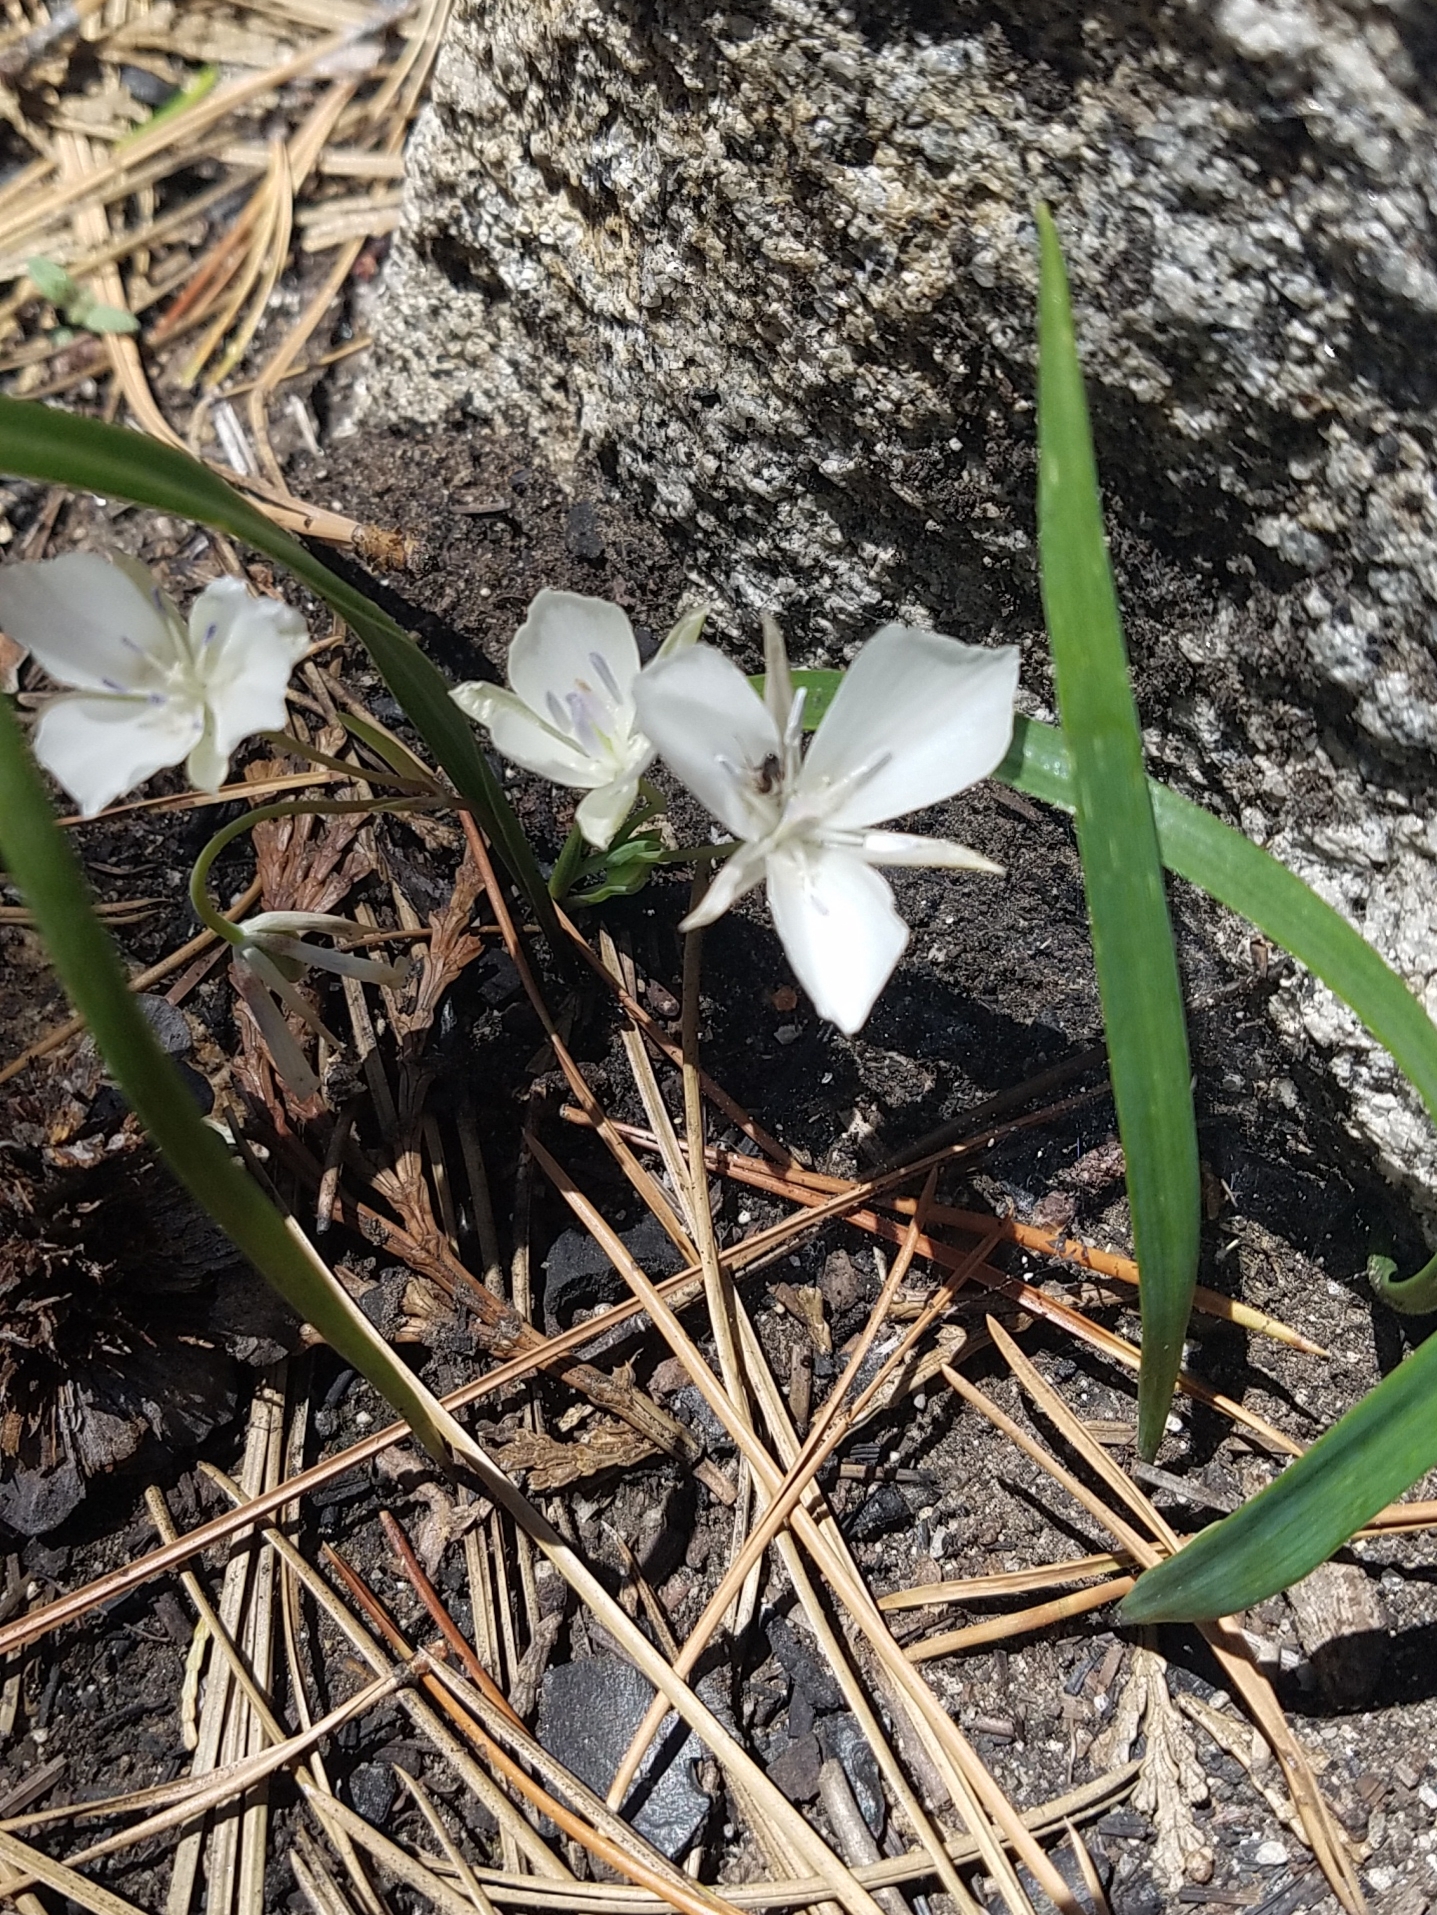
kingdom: Plantae
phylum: Tracheophyta
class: Liliopsida
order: Liliales
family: Liliaceae
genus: Calochortus
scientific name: Calochortus minimus
